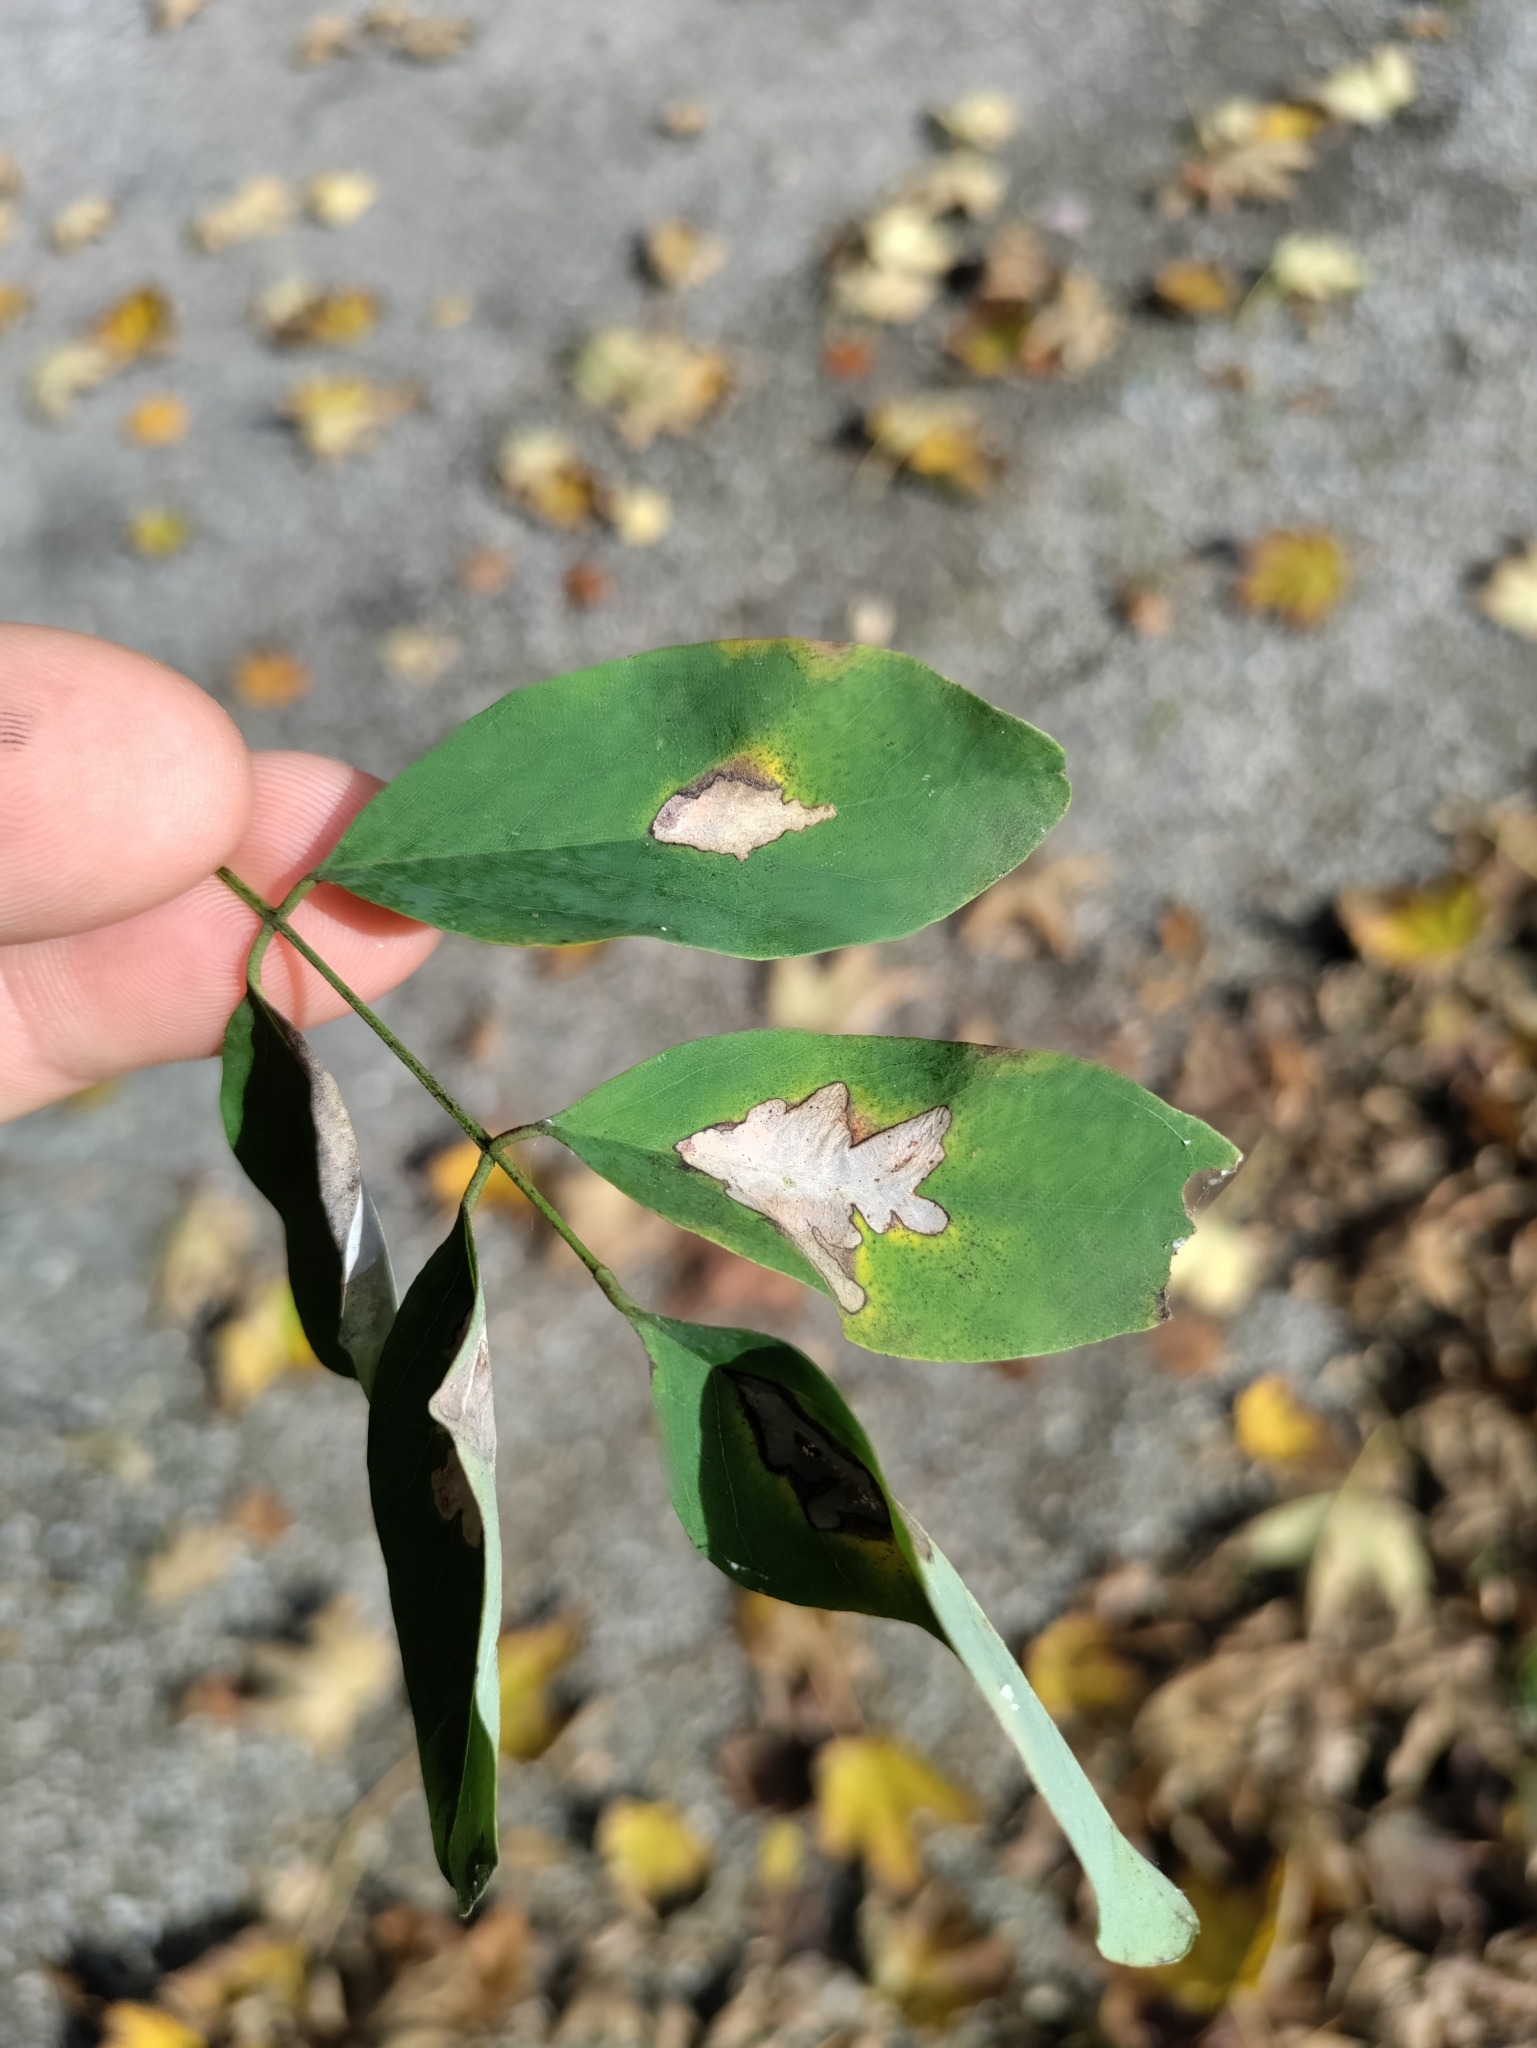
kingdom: Animalia
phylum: Arthropoda
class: Insecta
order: Lepidoptera
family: Gracillariidae
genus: Parectopa
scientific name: Parectopa robiniella
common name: Locust digitate leafminer
